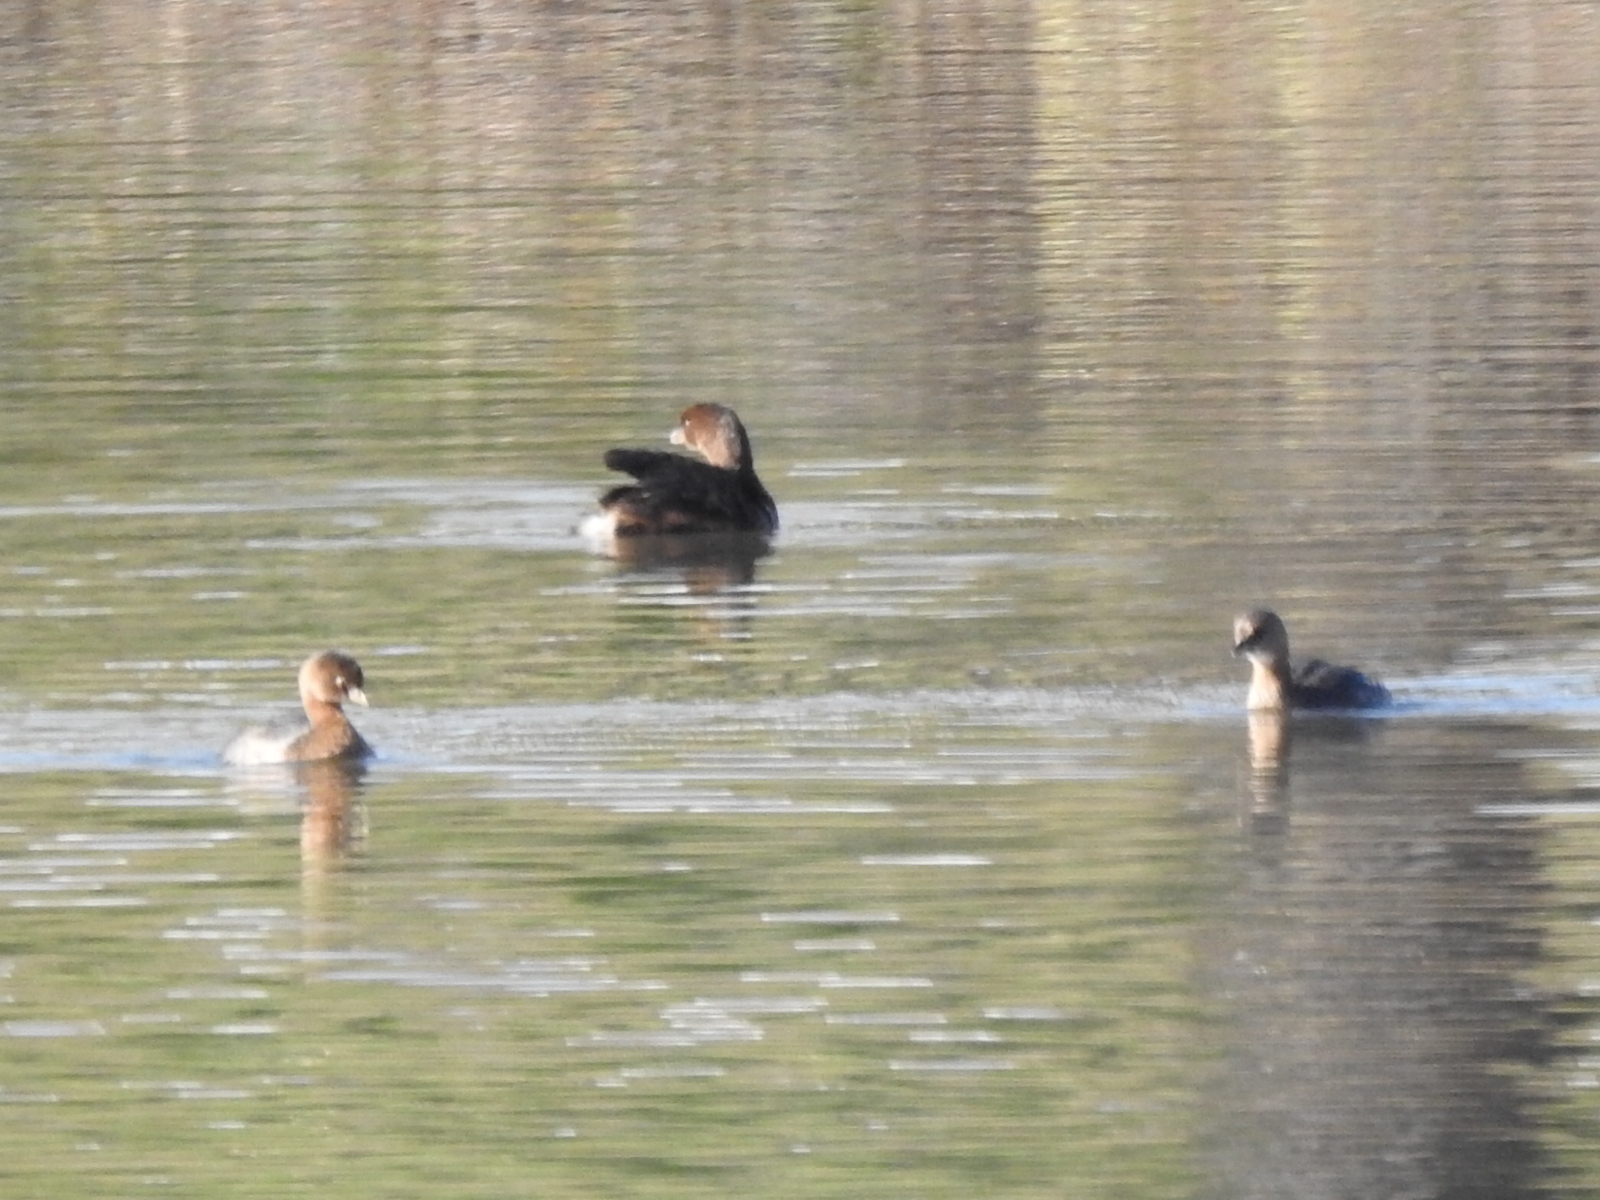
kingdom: Animalia
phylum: Chordata
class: Aves
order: Podicipediformes
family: Podicipedidae
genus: Podilymbus
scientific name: Podilymbus podiceps
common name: Pied-billed grebe
